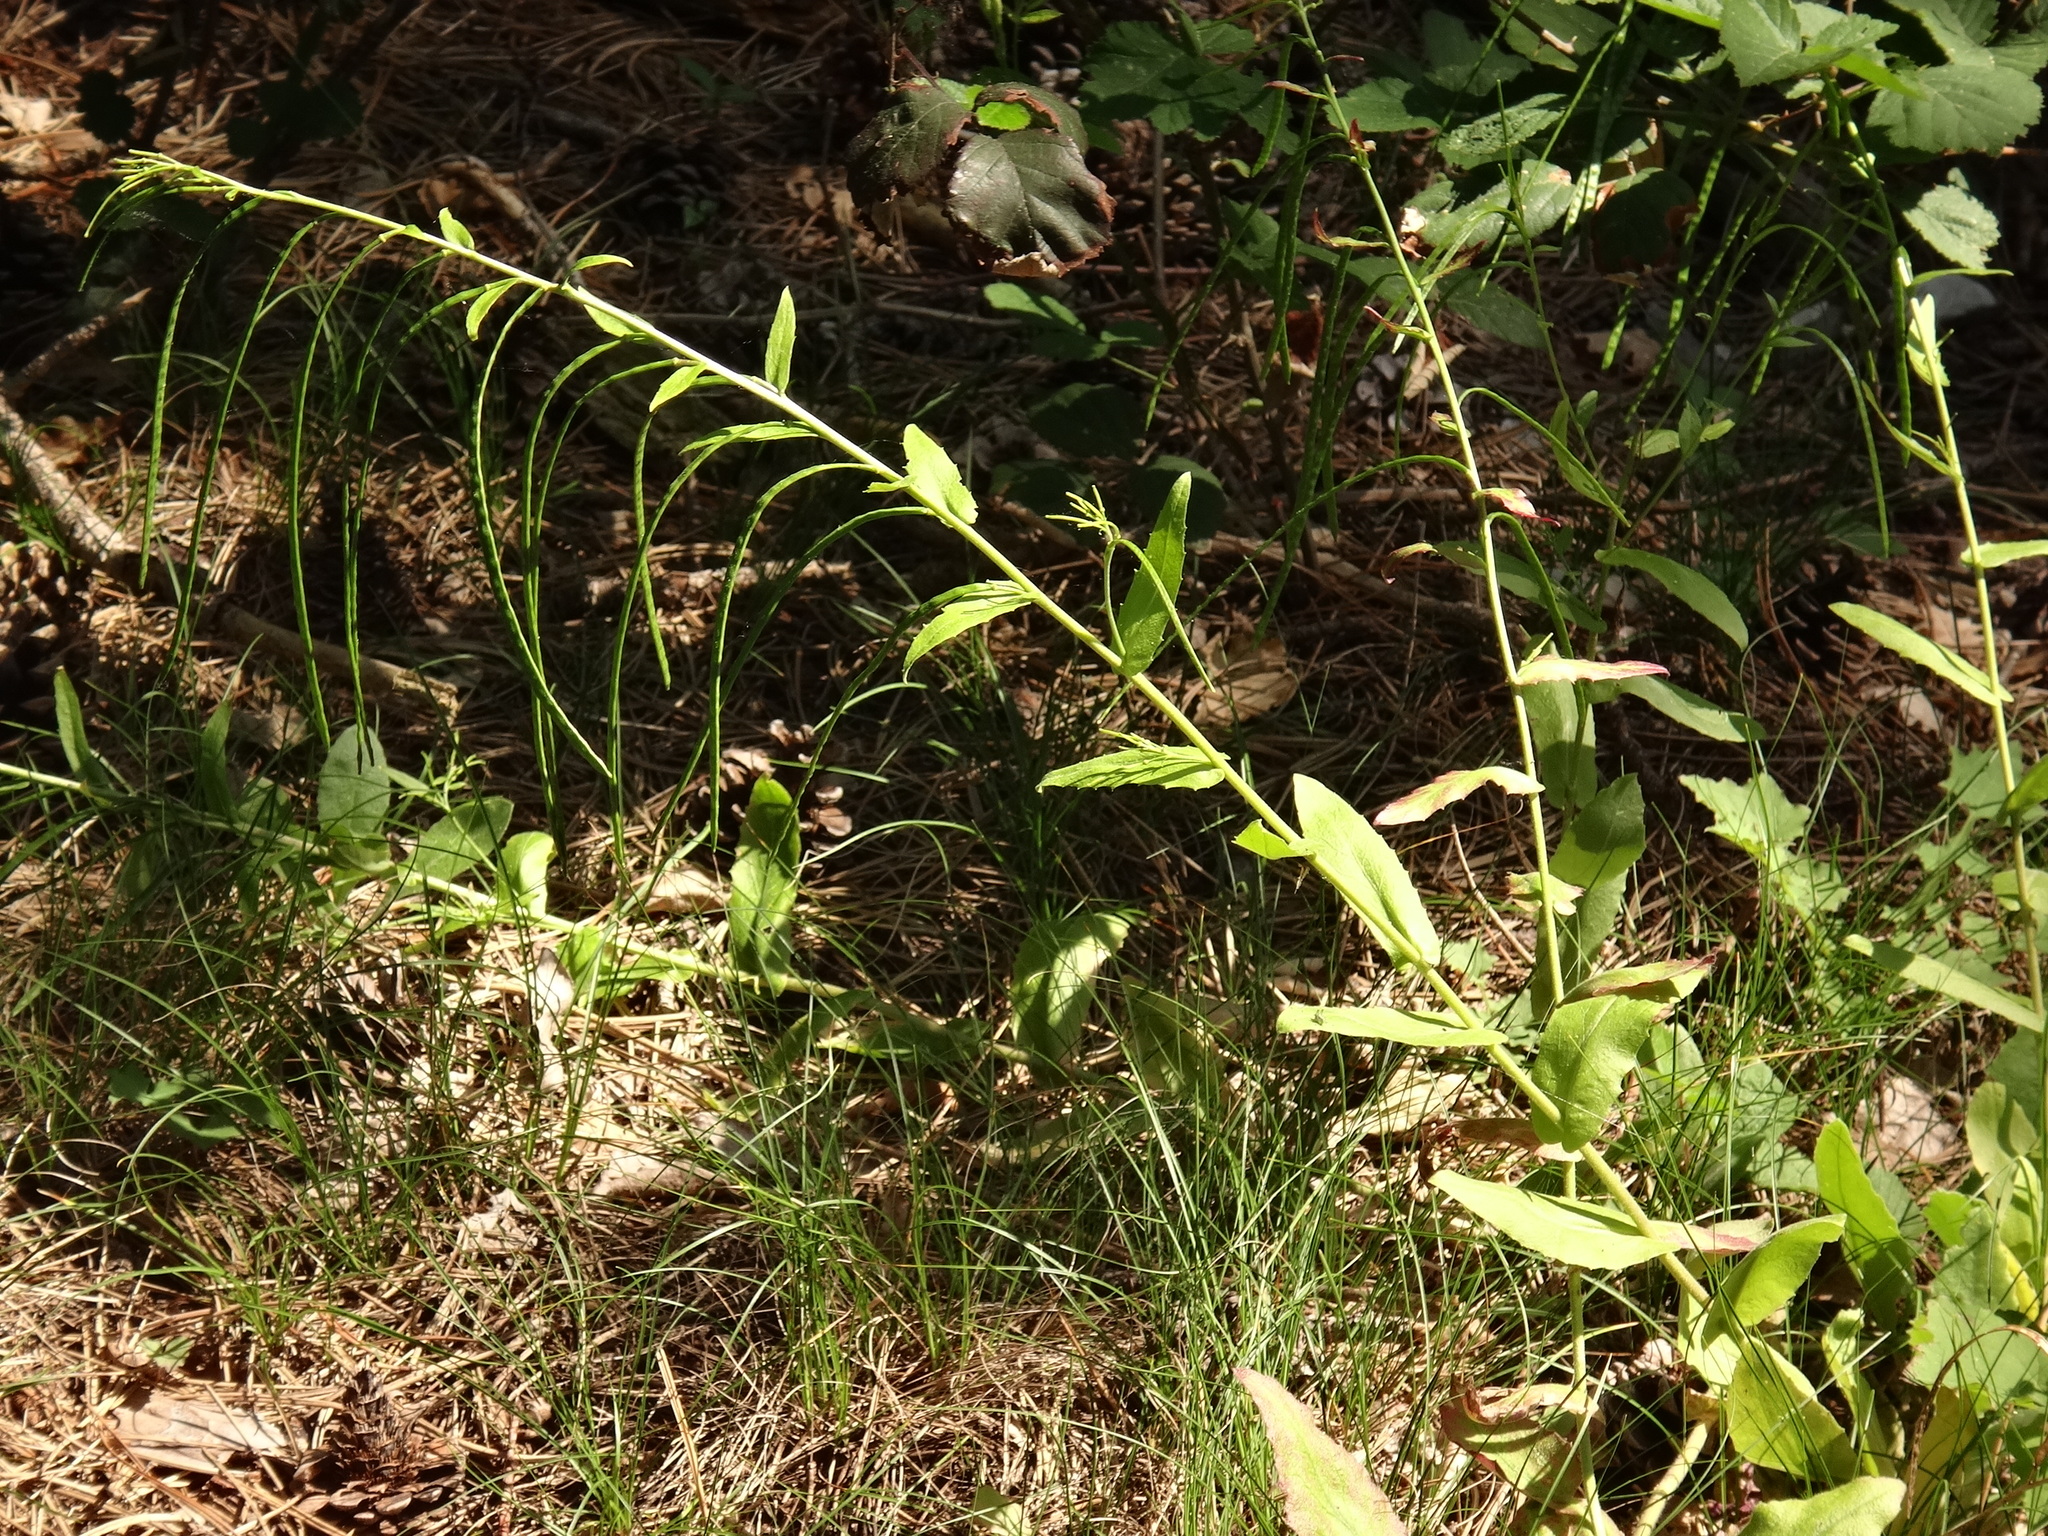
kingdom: Plantae
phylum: Tracheophyta
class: Magnoliopsida
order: Brassicales
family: Brassicaceae
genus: Pseudoturritis
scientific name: Pseudoturritis turrita
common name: Tower cress
